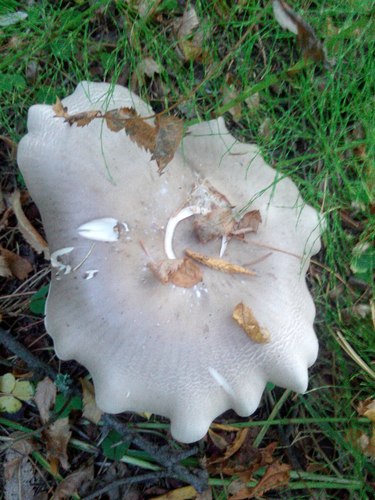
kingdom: Fungi
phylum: Basidiomycota
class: Agaricomycetes
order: Agaricales
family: Tricholomataceae
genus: Clitocybe
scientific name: Clitocybe nebularis
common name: Clouded agaric
